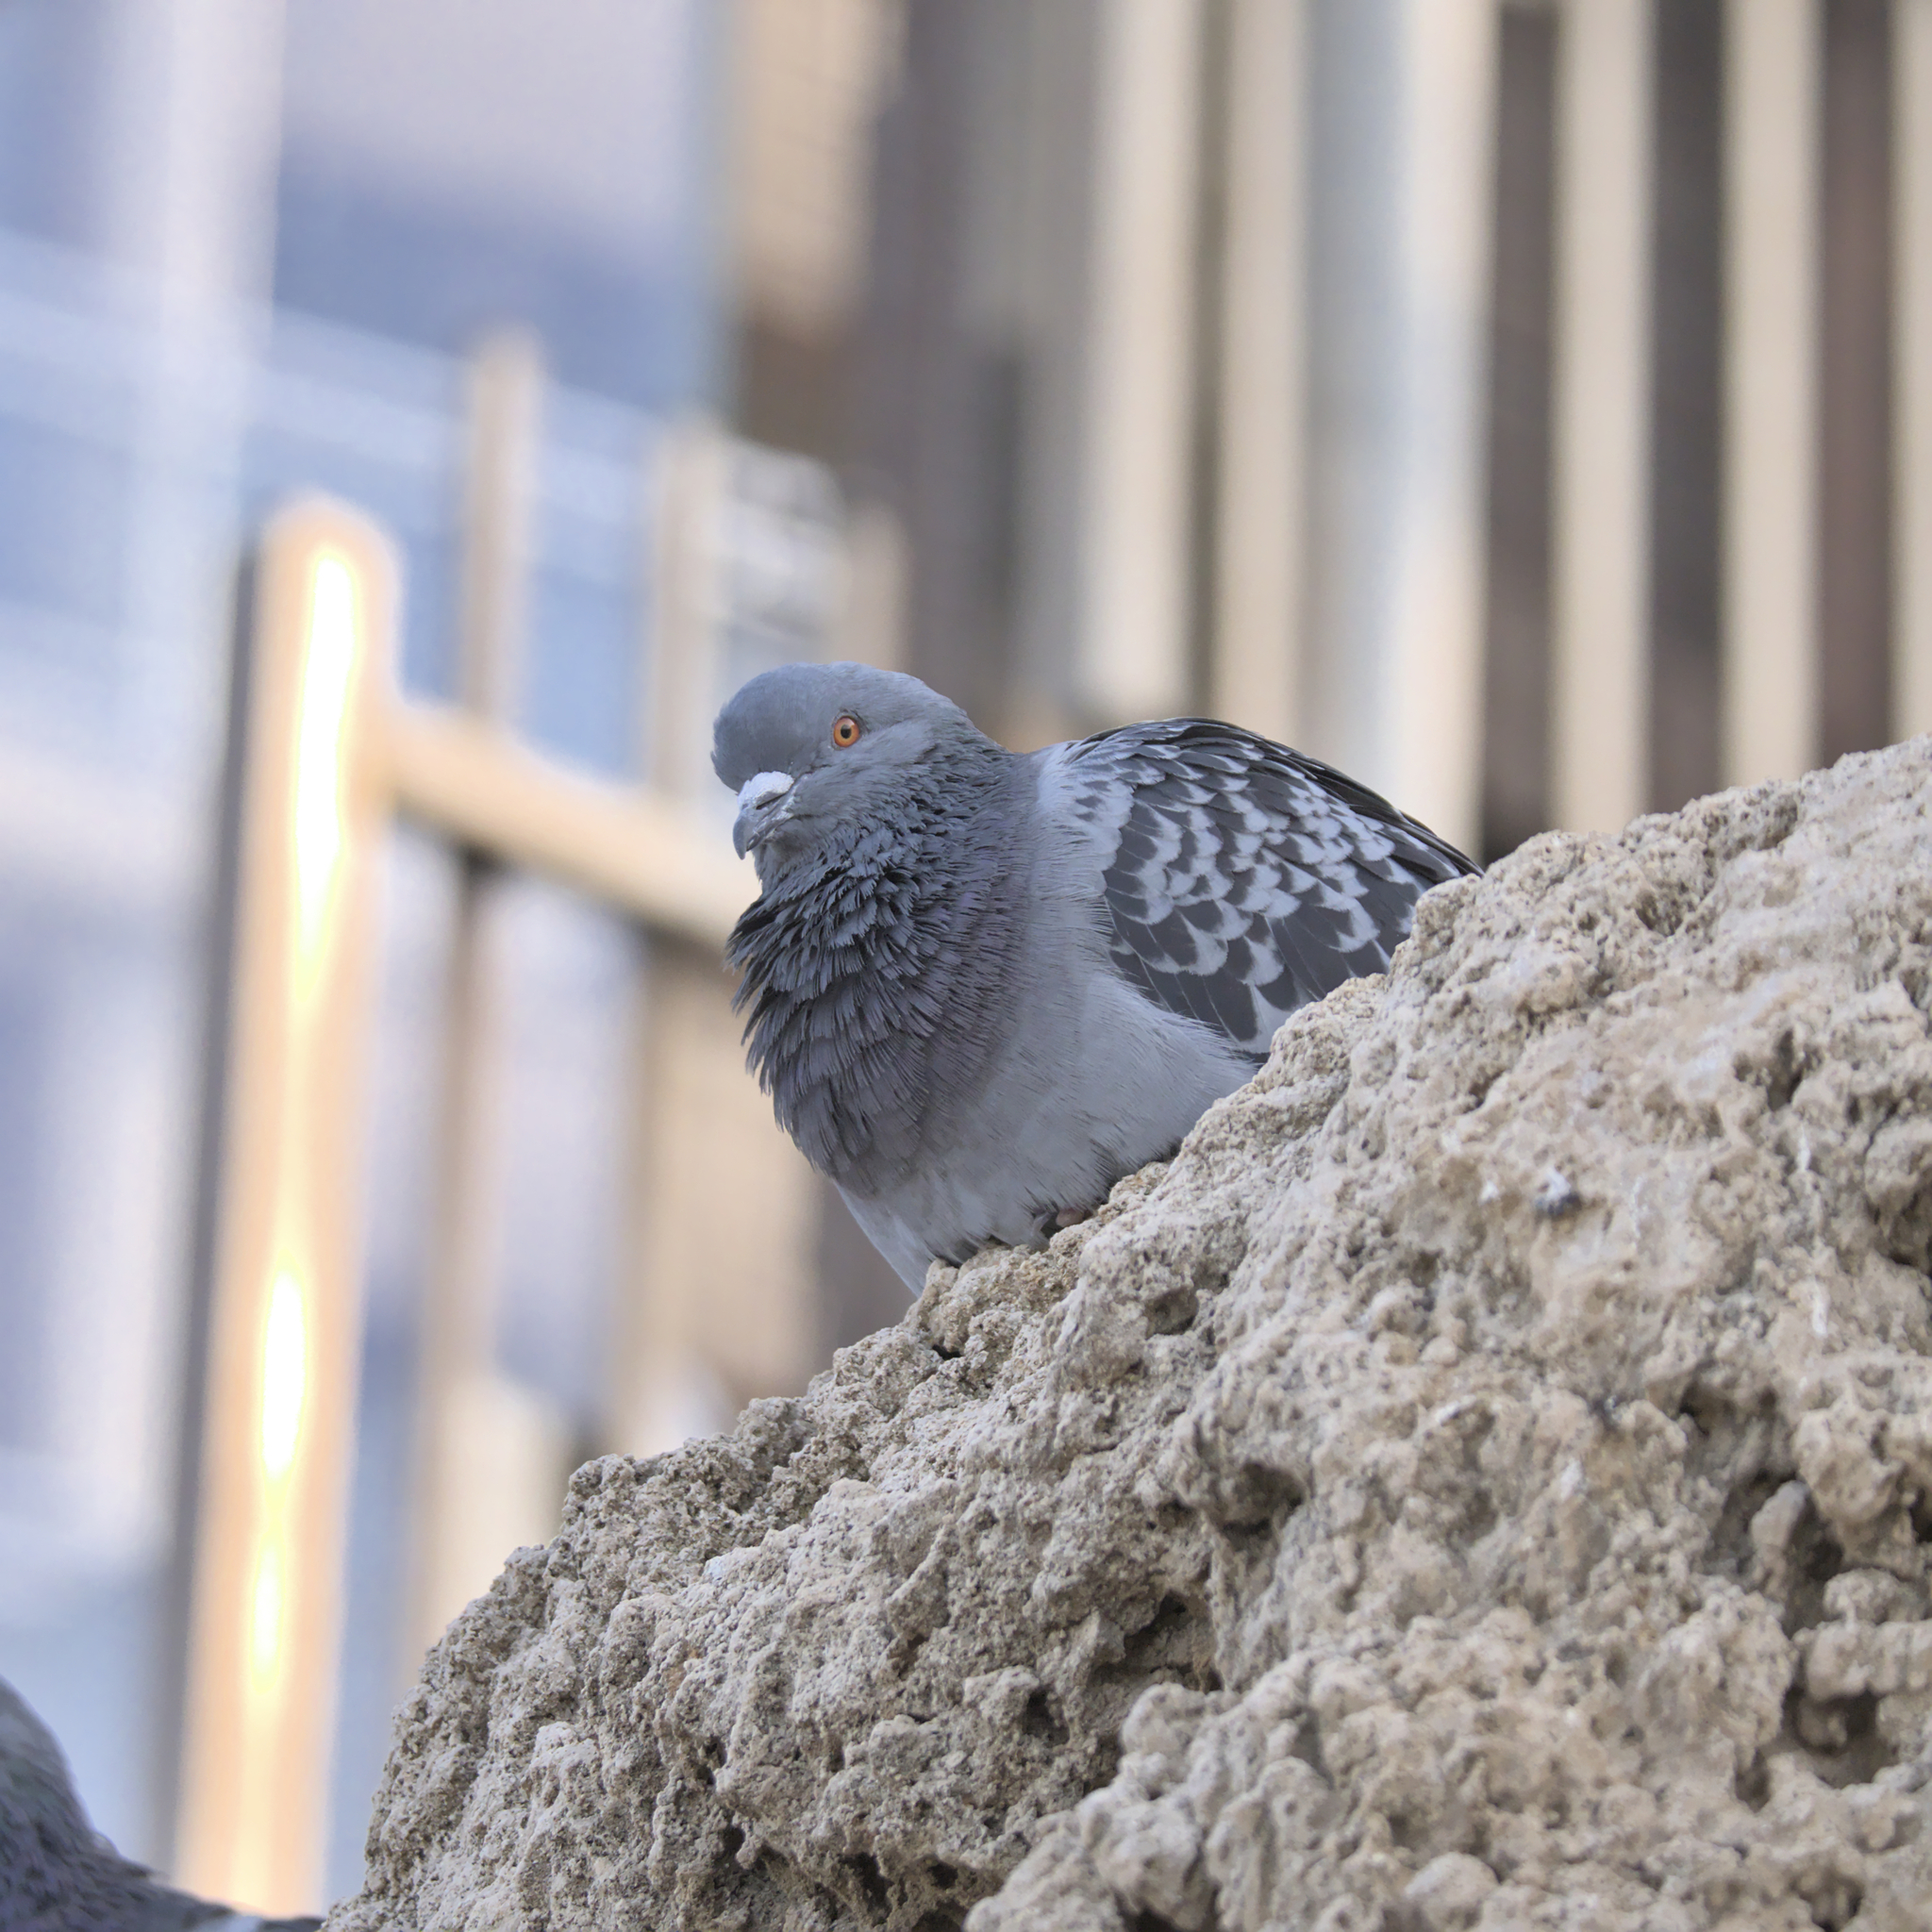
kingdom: Animalia
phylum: Chordata
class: Aves
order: Columbiformes
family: Columbidae
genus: Columba
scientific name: Columba livia
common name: Rock pigeon
